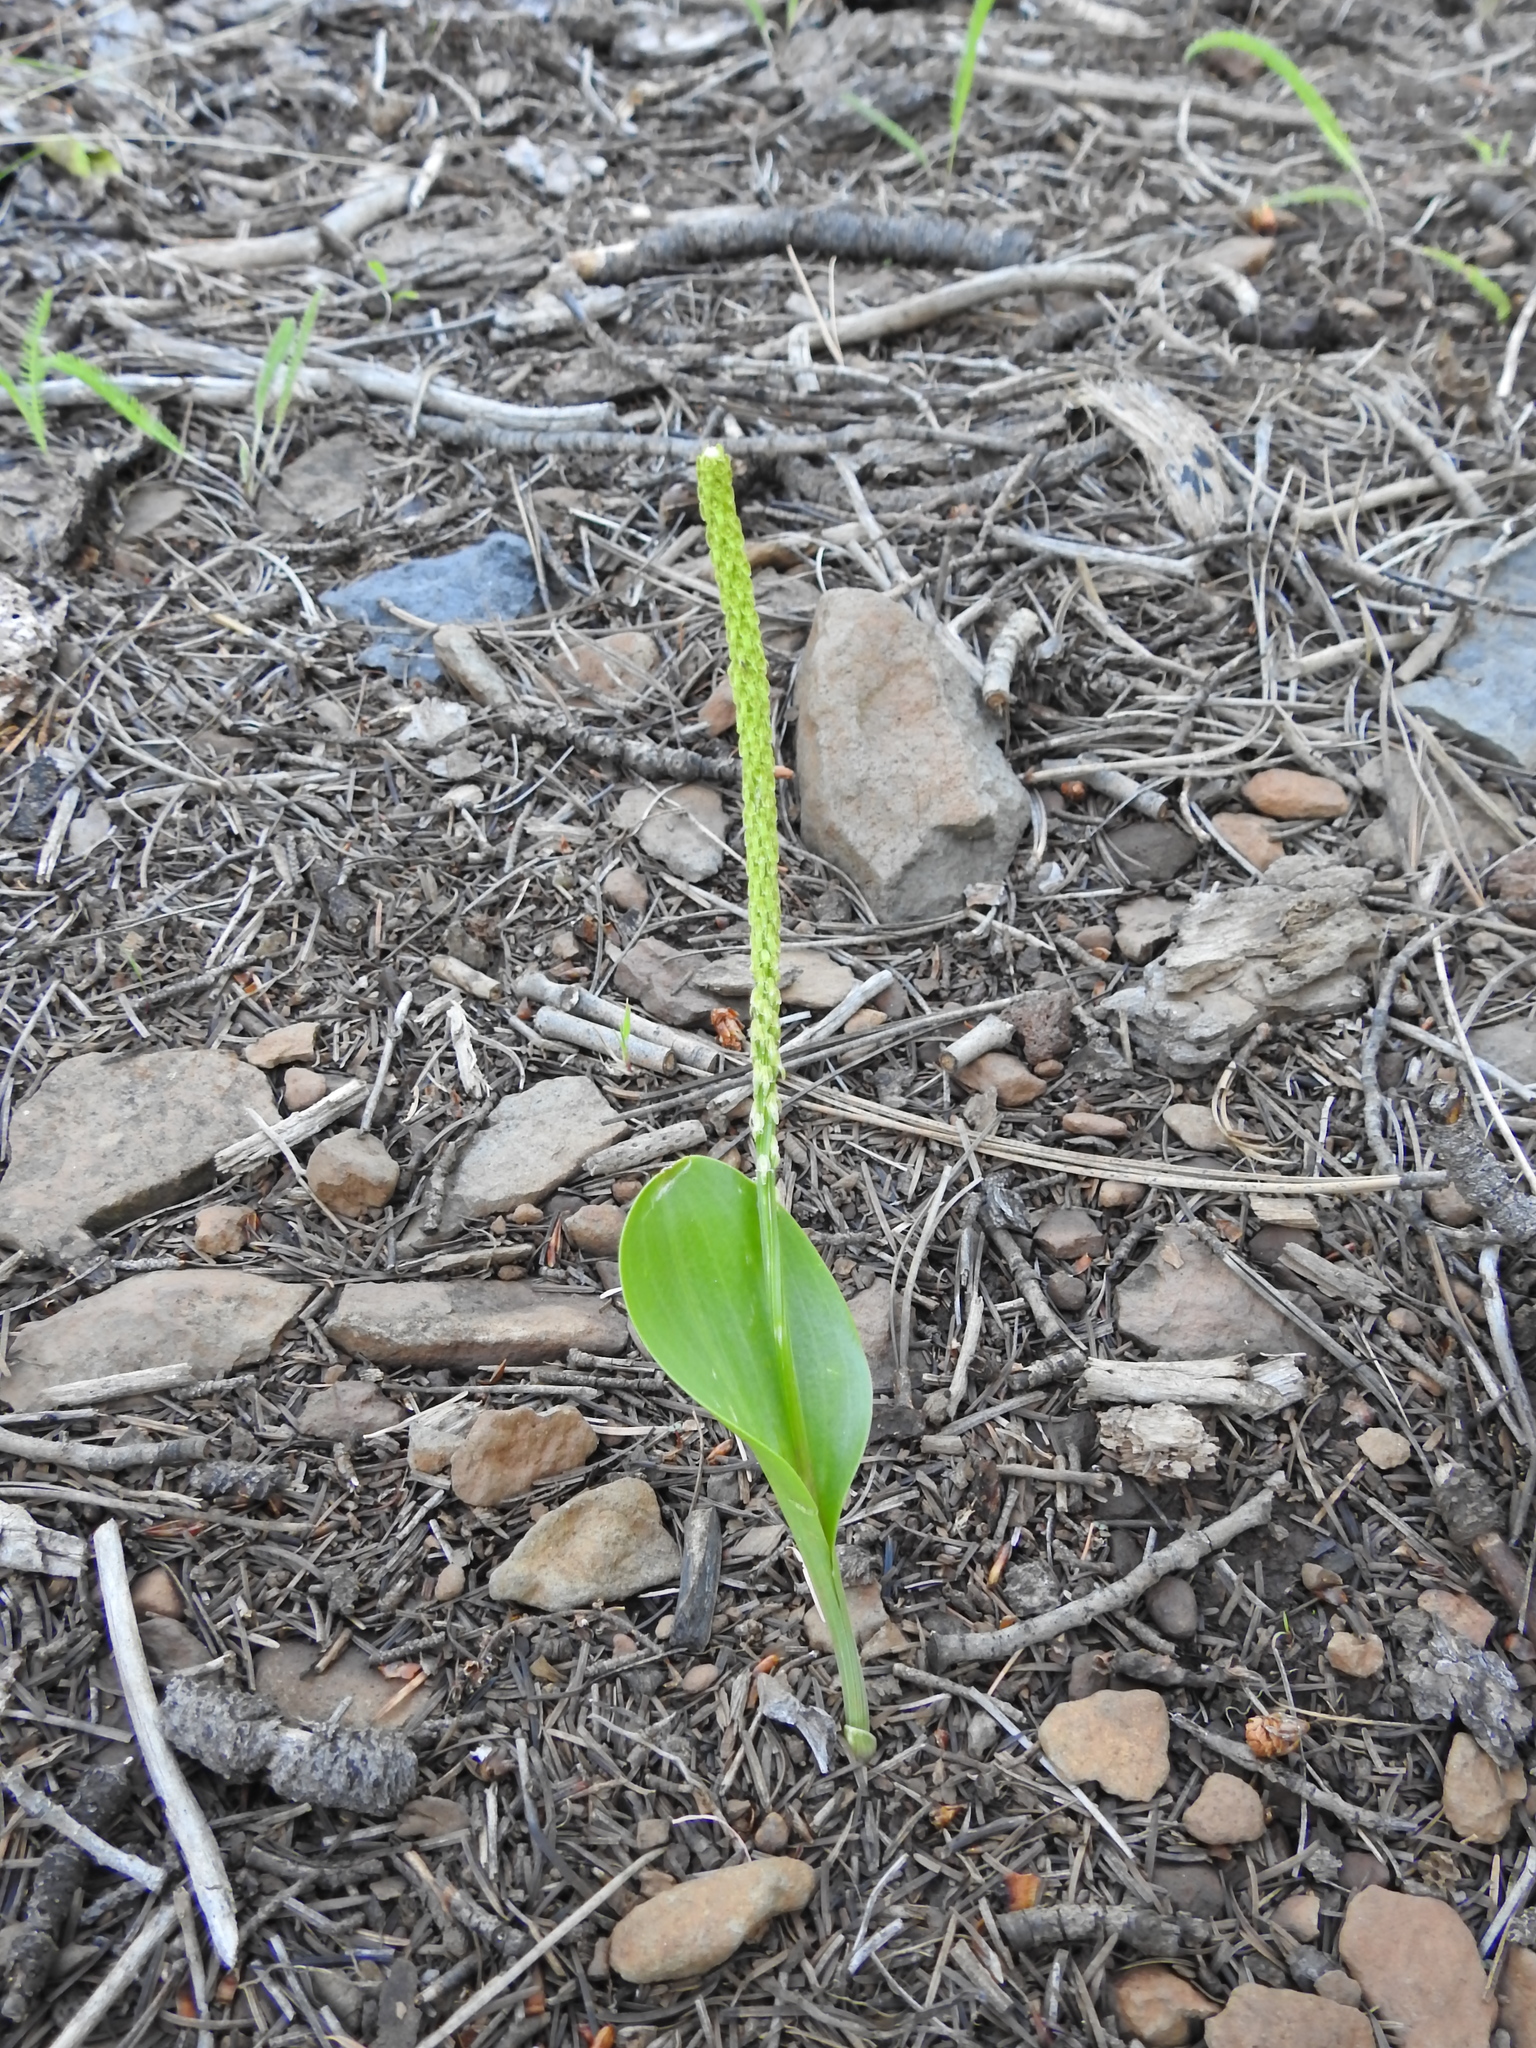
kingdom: Plantae
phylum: Tracheophyta
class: Liliopsida
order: Asparagales
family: Orchidaceae
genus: Malaxis
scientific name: Malaxis macrostachya
